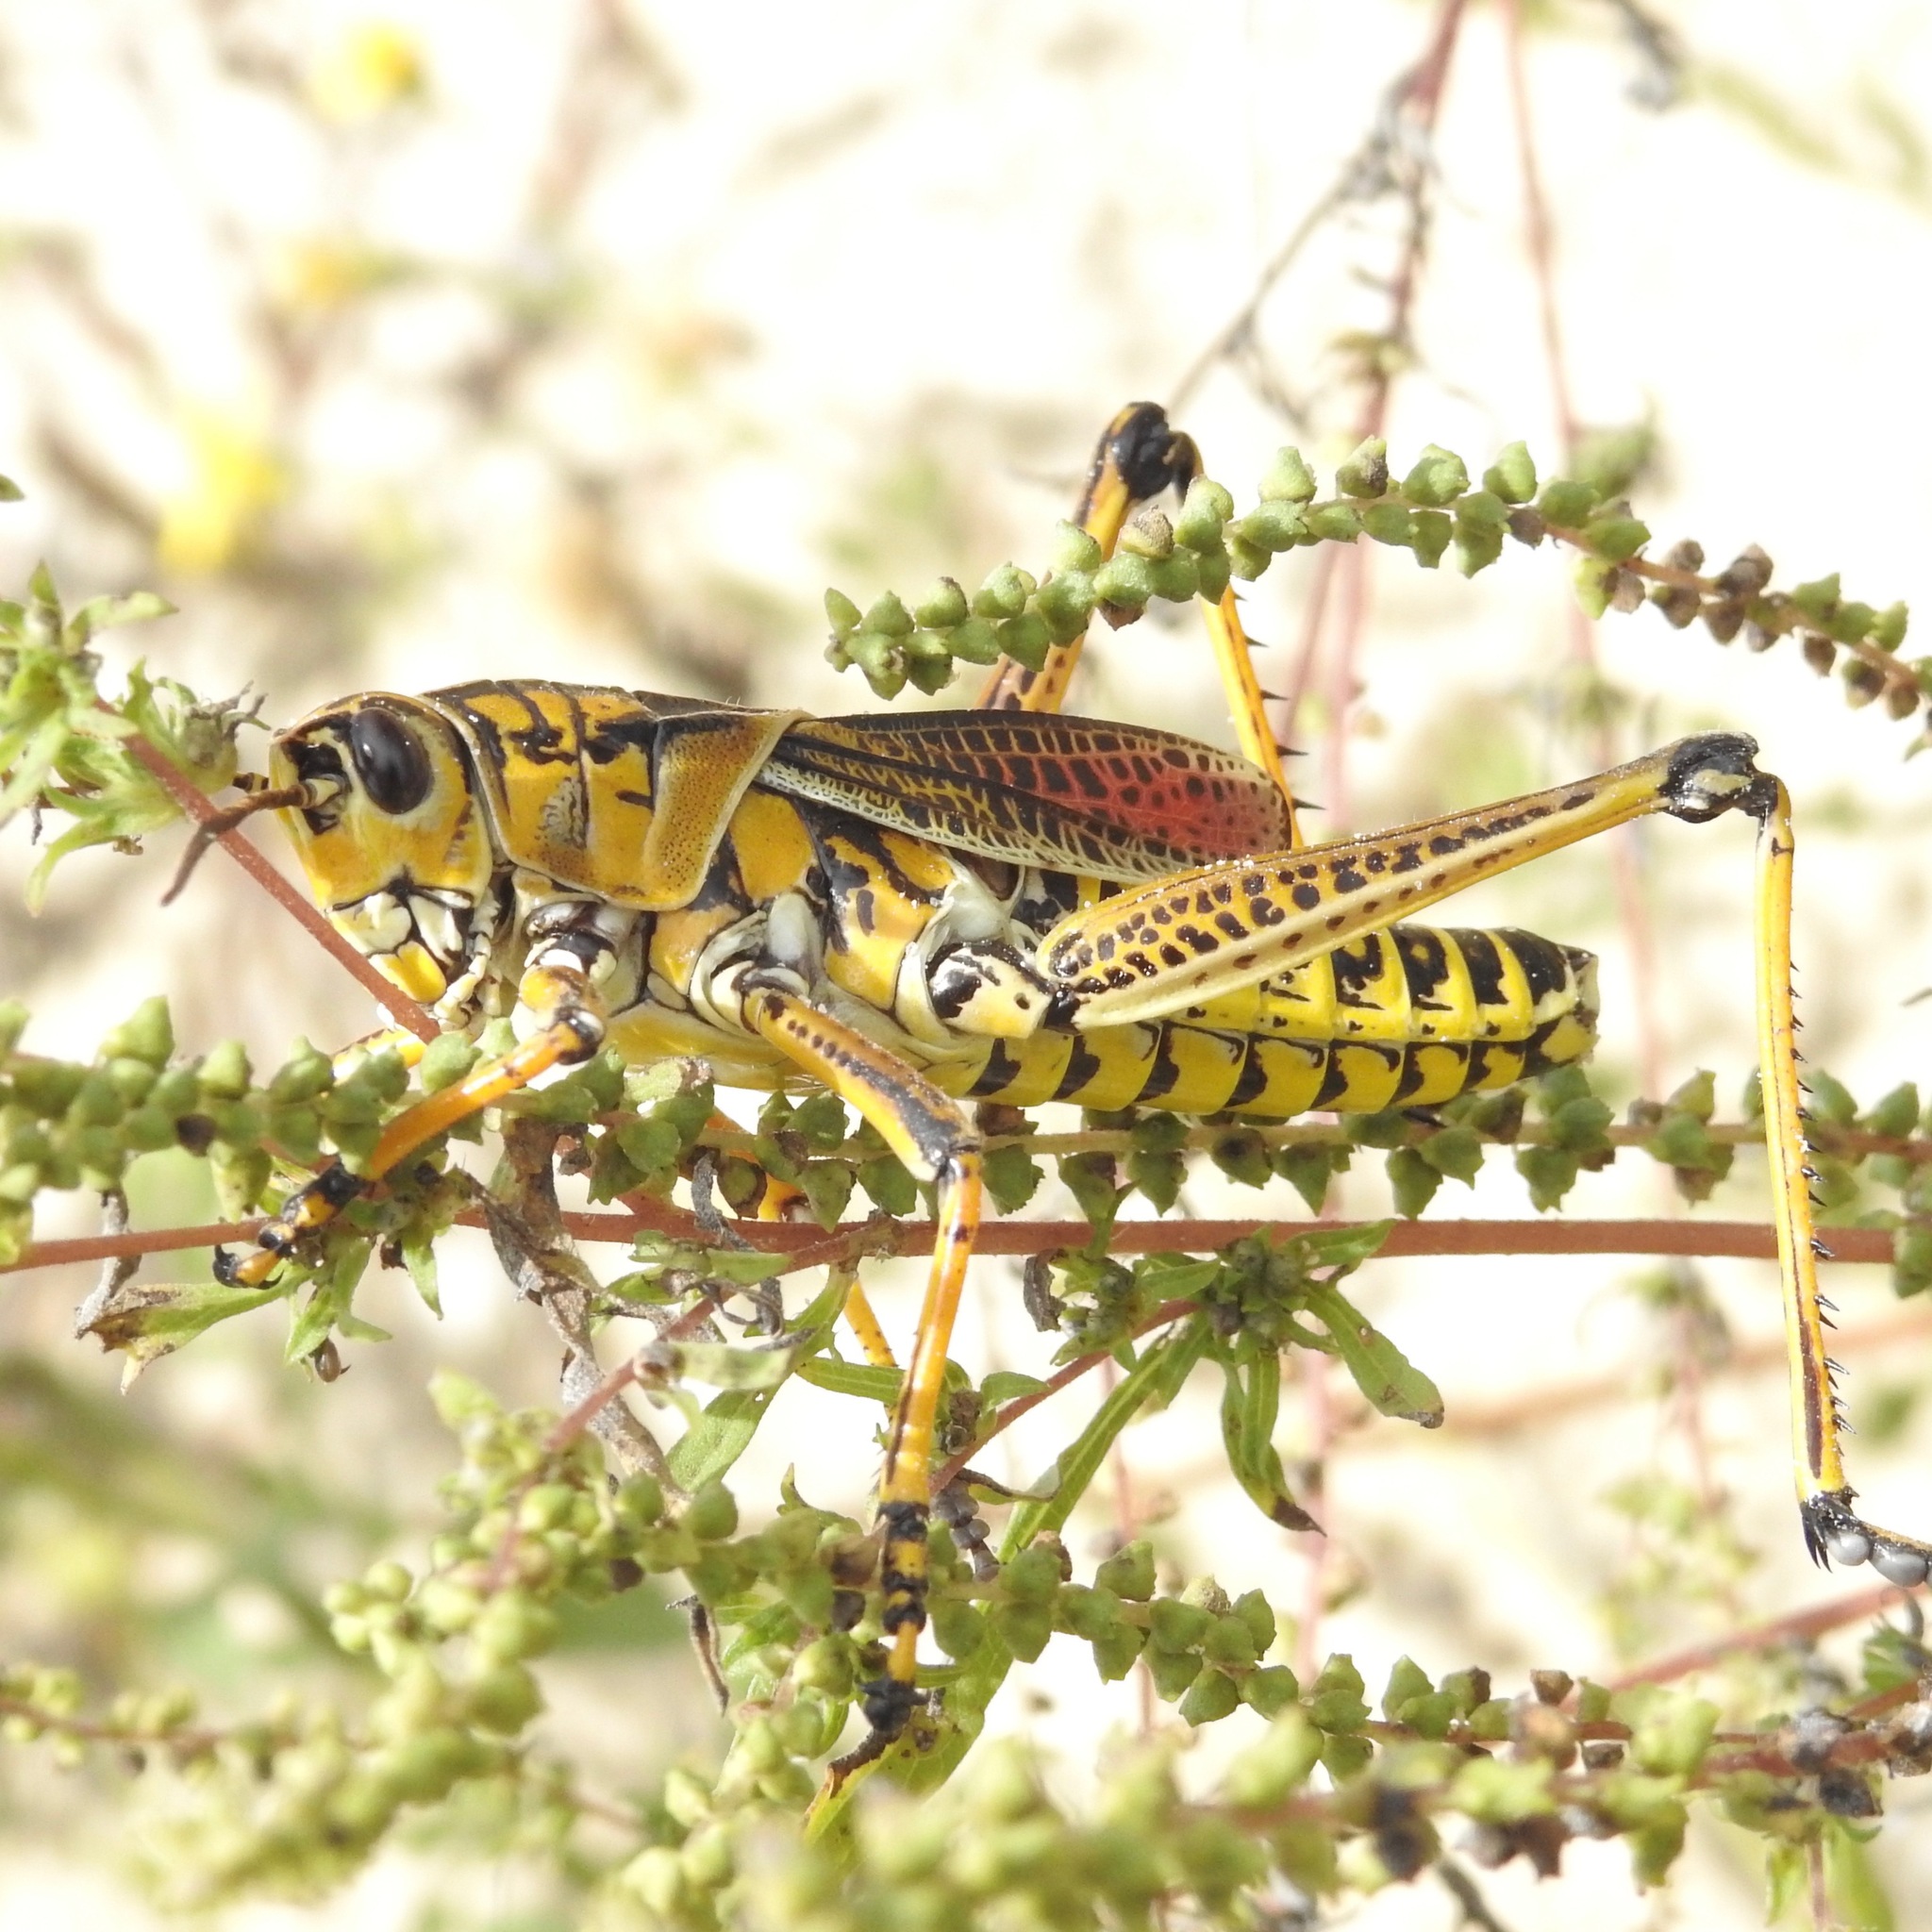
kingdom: Animalia
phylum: Arthropoda
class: Insecta
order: Orthoptera
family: Romaleidae
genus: Romalea
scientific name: Romalea microptera
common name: Eastern lubber grasshopper
